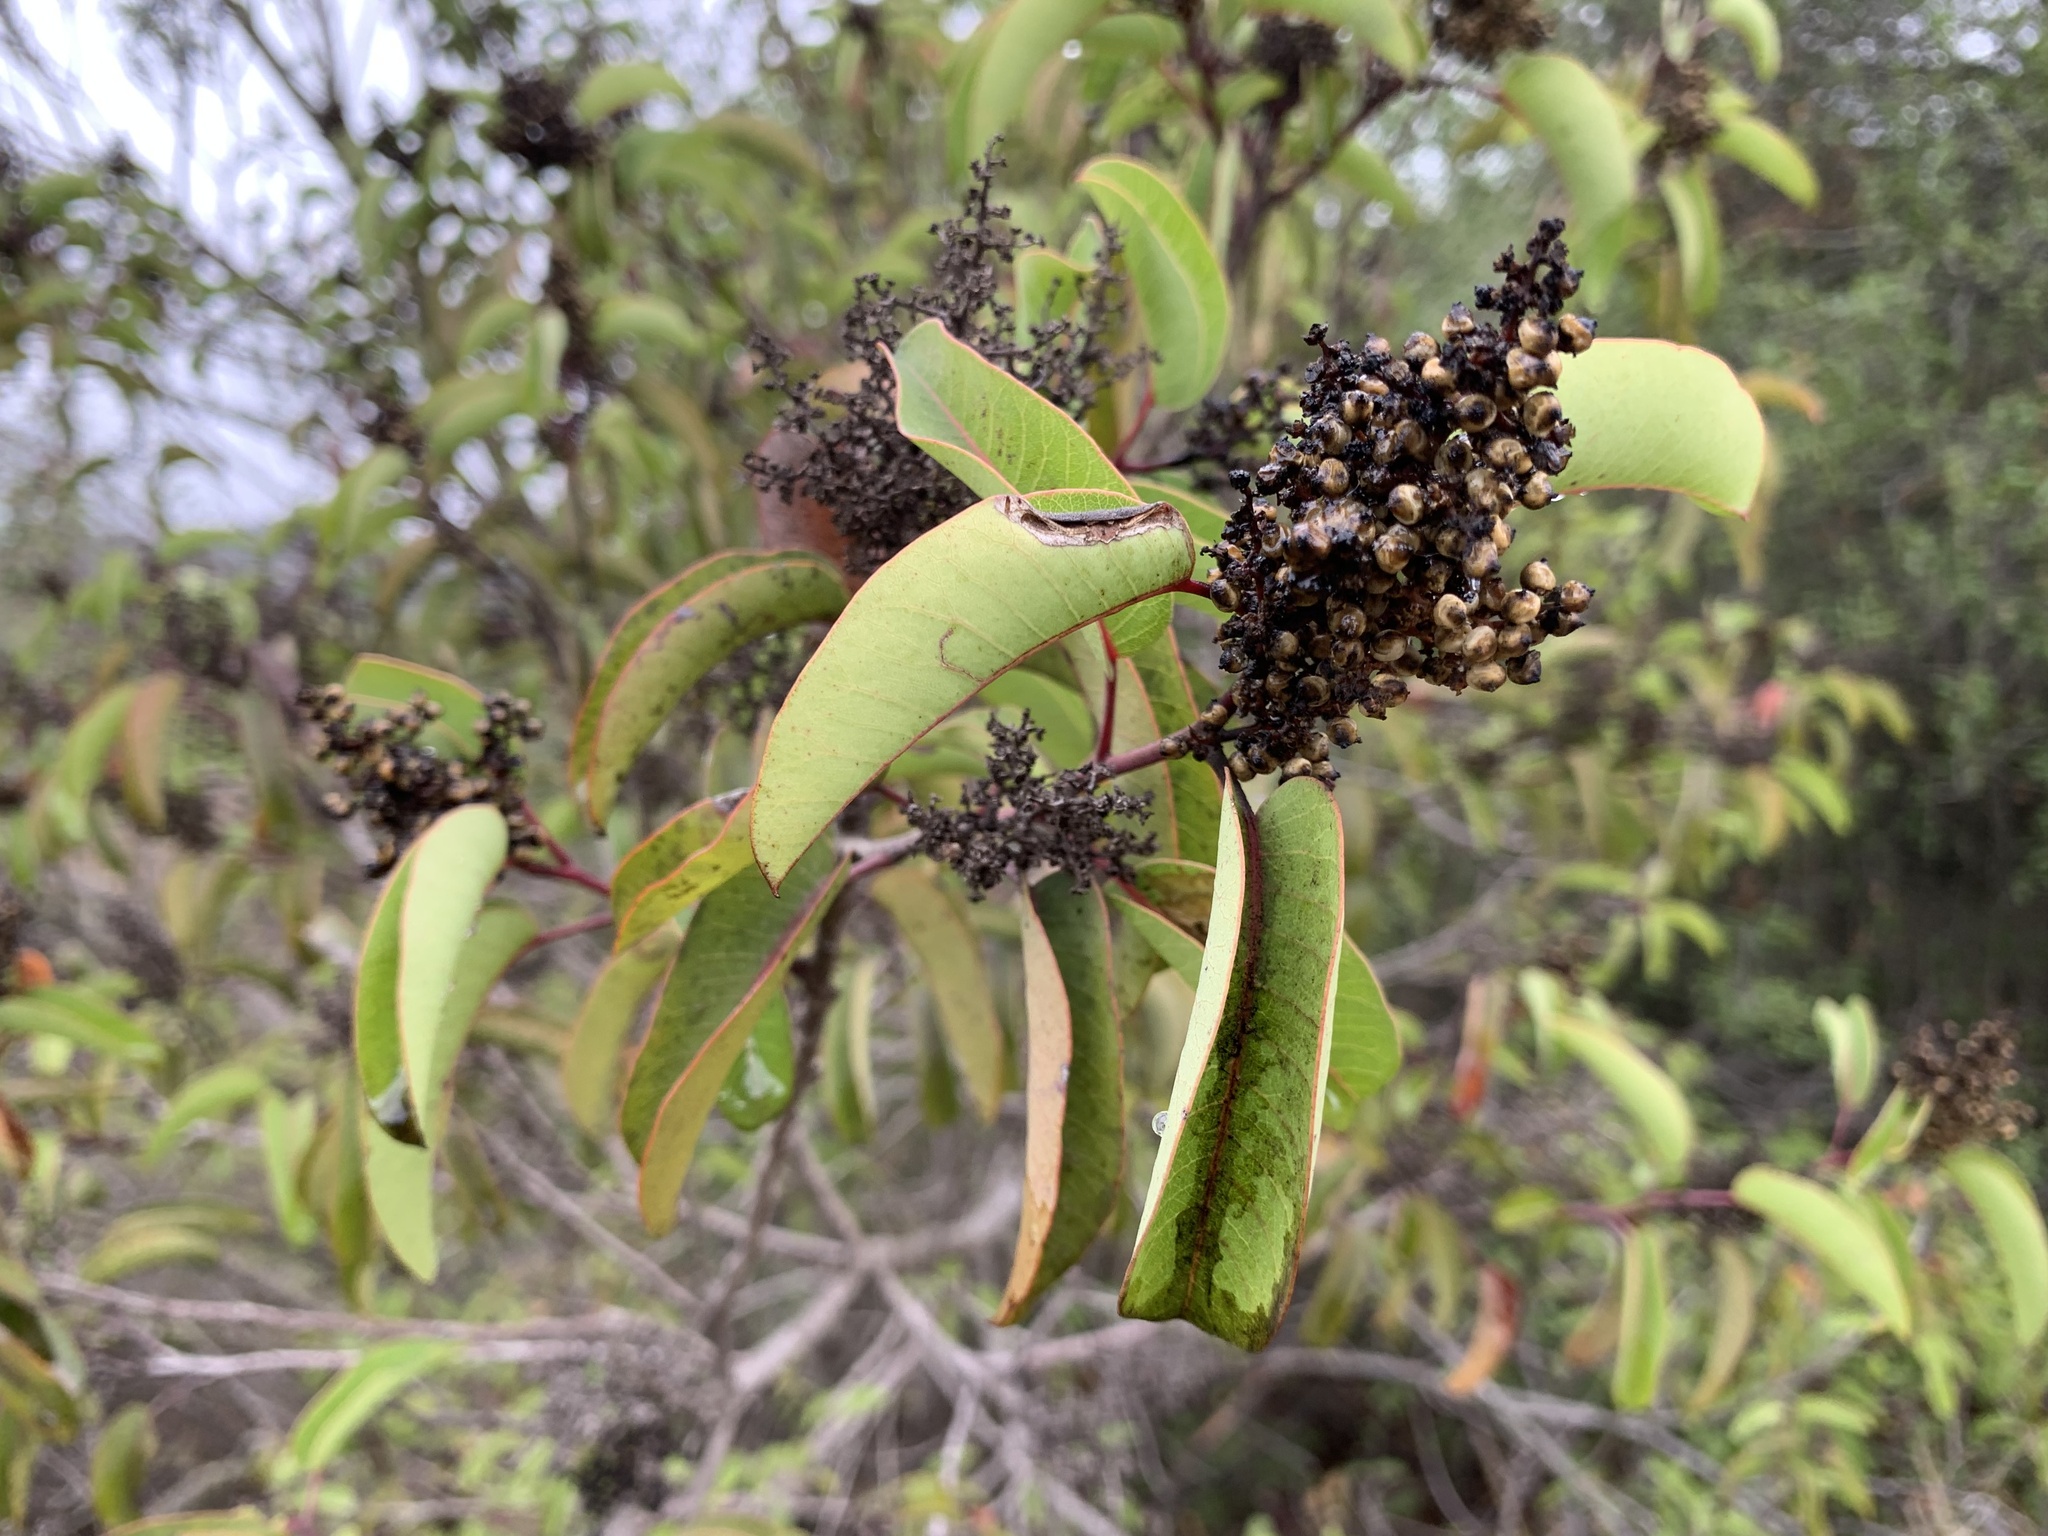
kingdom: Plantae
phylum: Tracheophyta
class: Magnoliopsida
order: Sapindales
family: Anacardiaceae
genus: Malosma
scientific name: Malosma laurina
